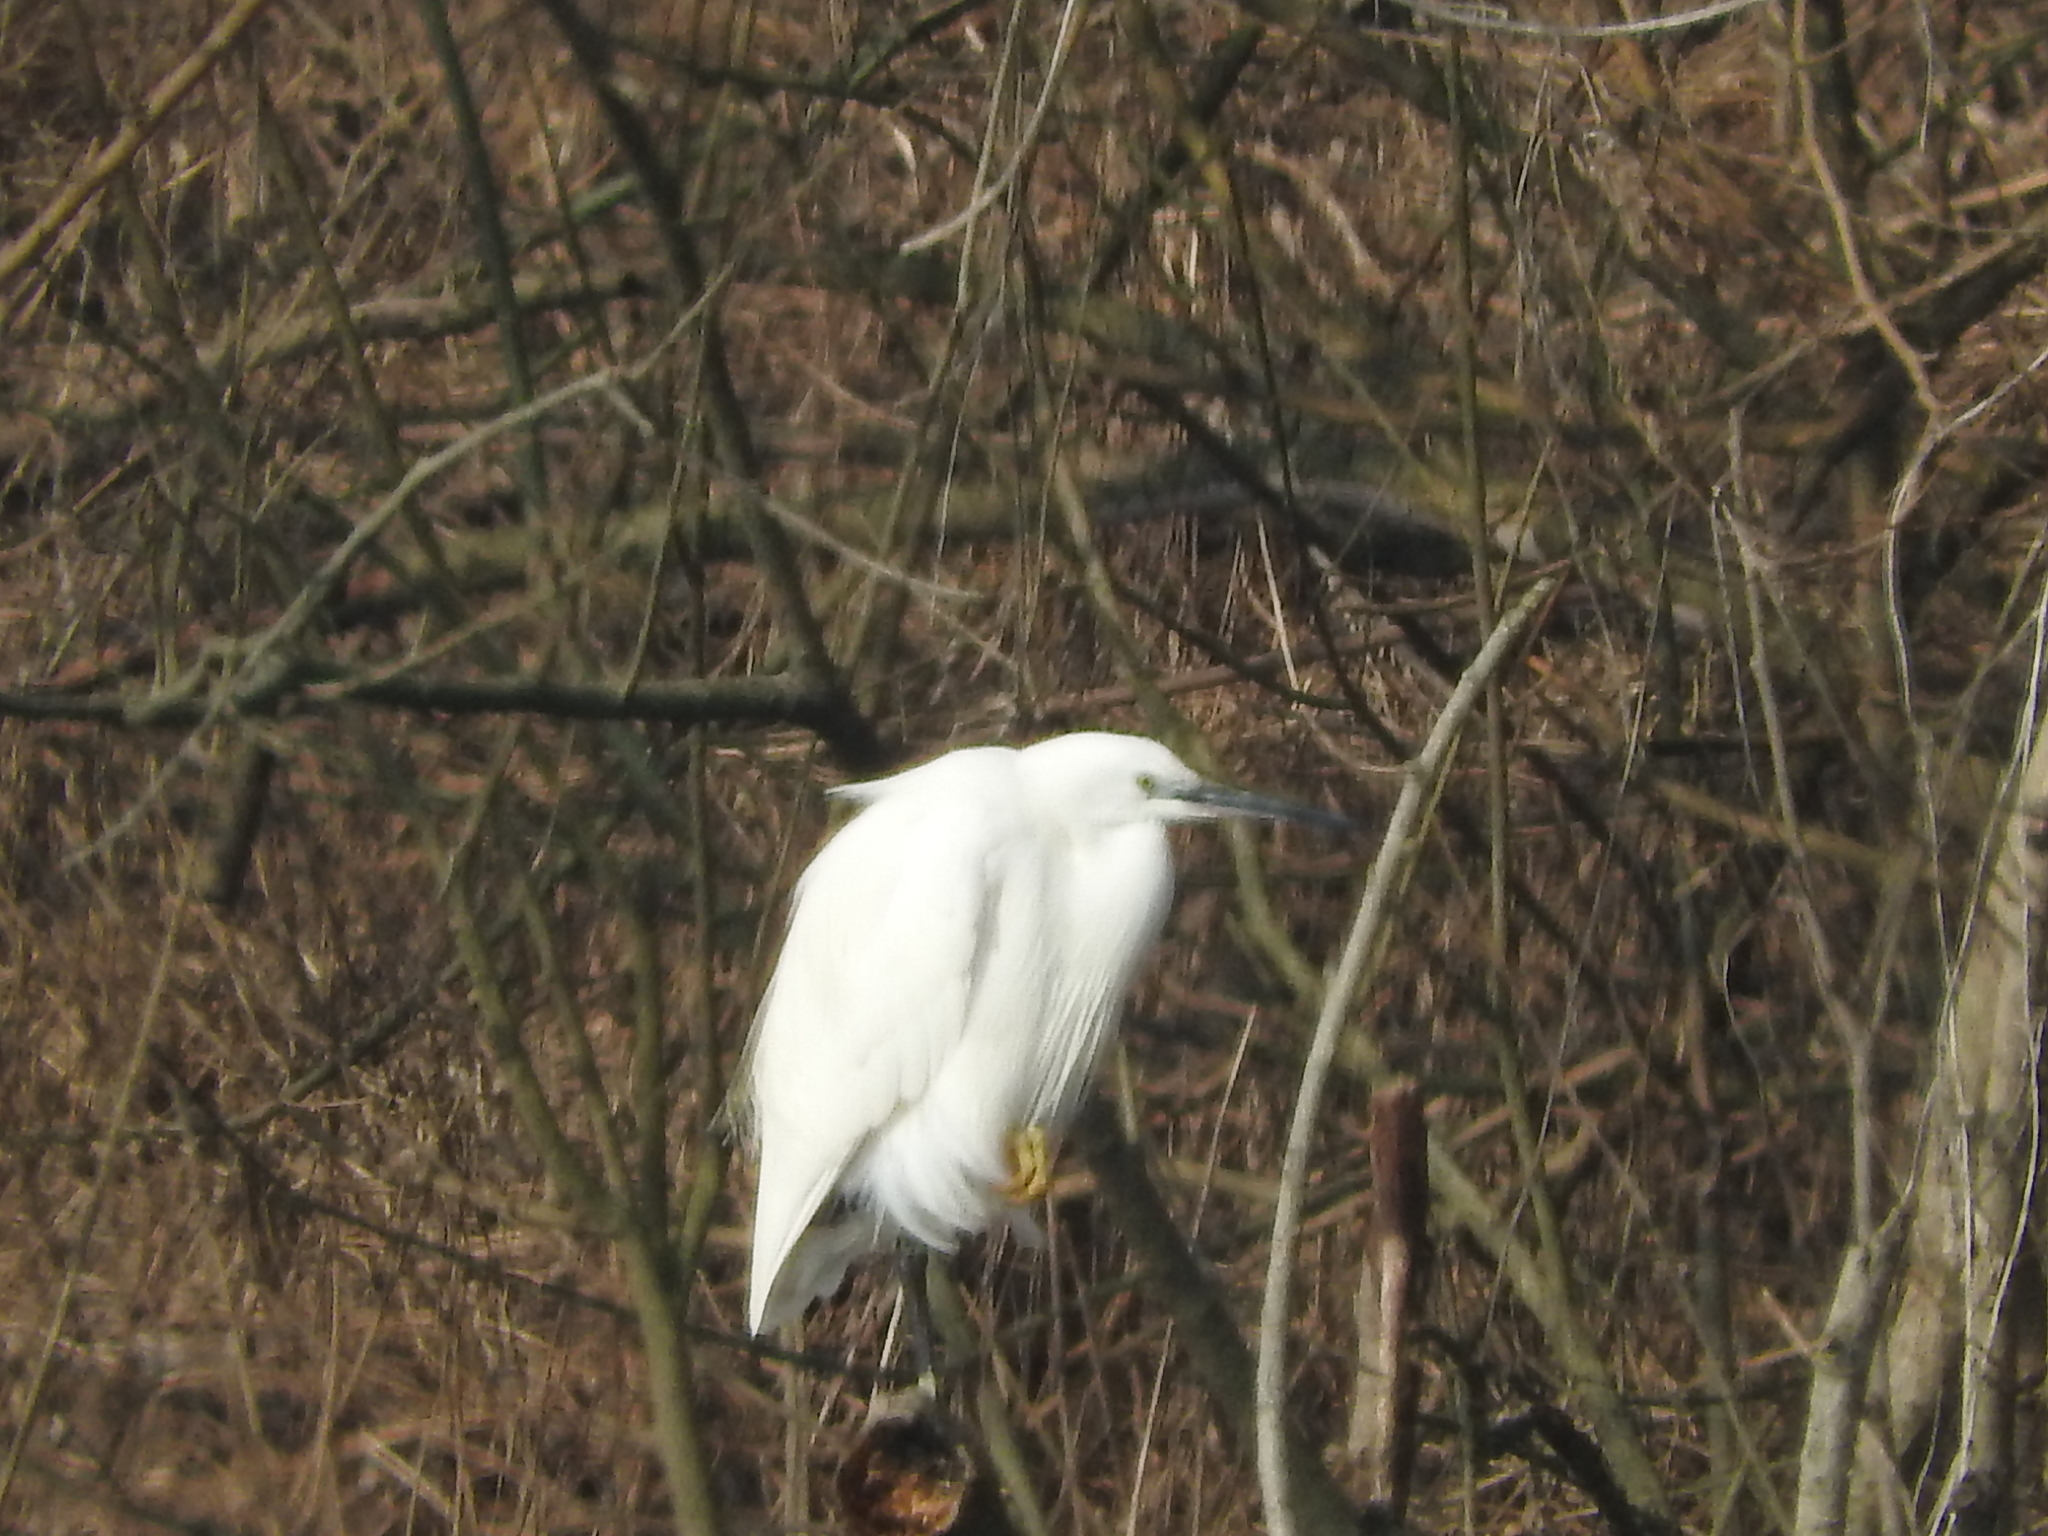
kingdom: Animalia
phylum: Chordata
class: Aves
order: Pelecaniformes
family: Ardeidae
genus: Egretta
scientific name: Egretta garzetta
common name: Little egret
